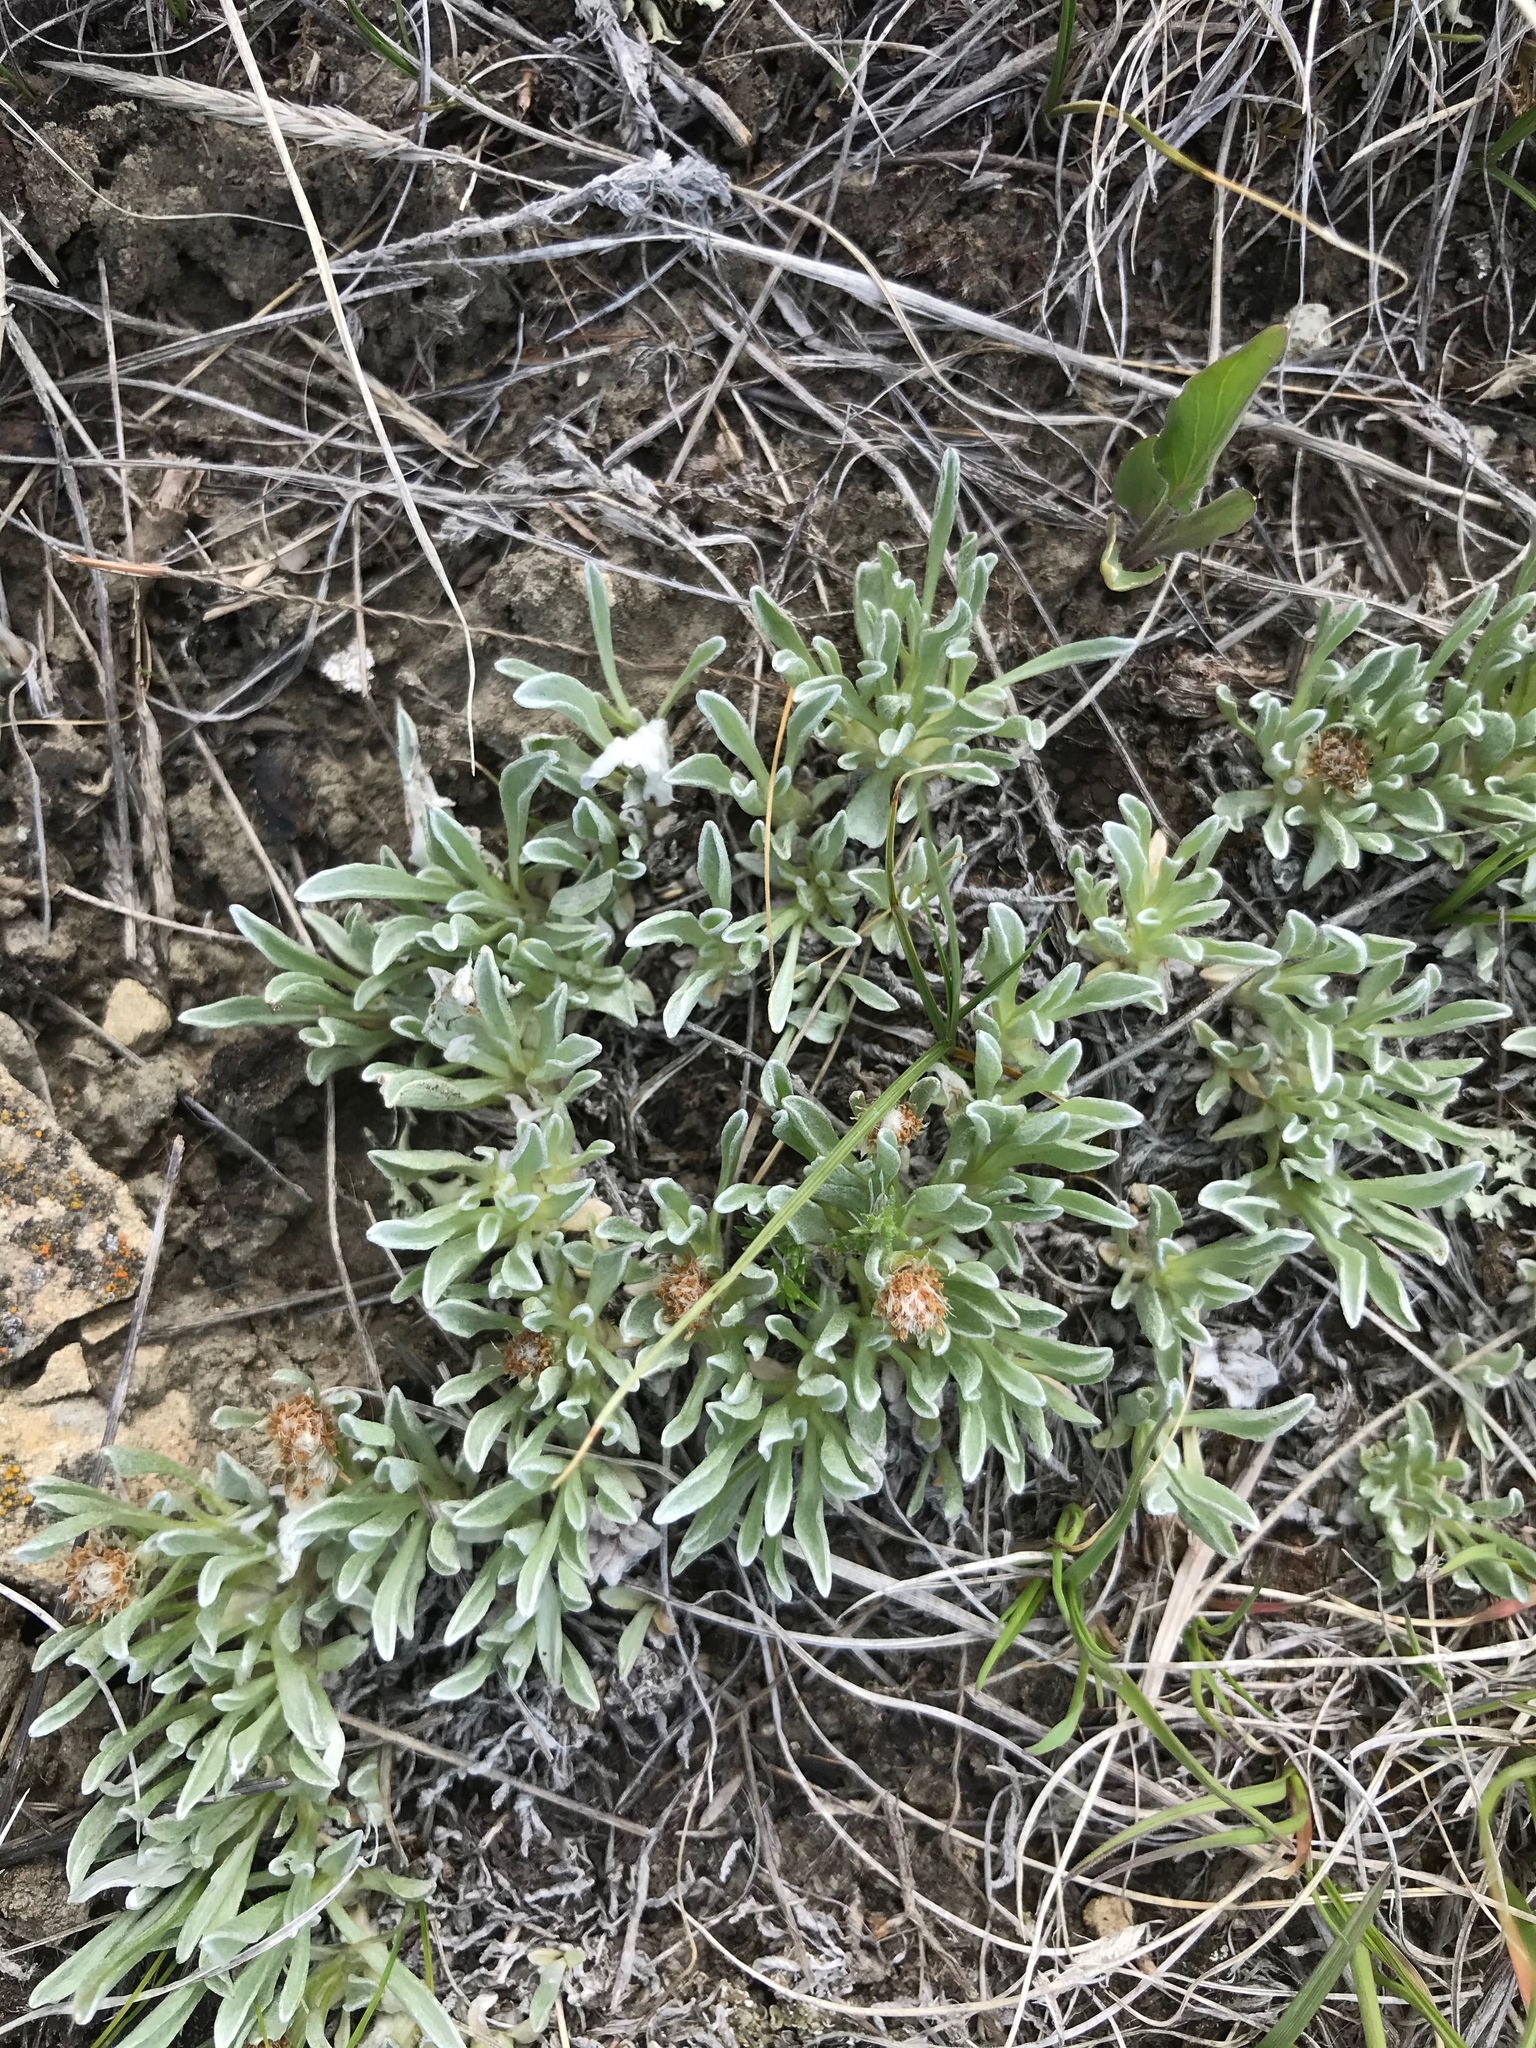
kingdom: Plantae
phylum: Tracheophyta
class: Magnoliopsida
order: Asterales
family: Asteraceae
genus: Antennaria
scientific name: Antennaria dimorpha
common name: Cushion pussytoes
